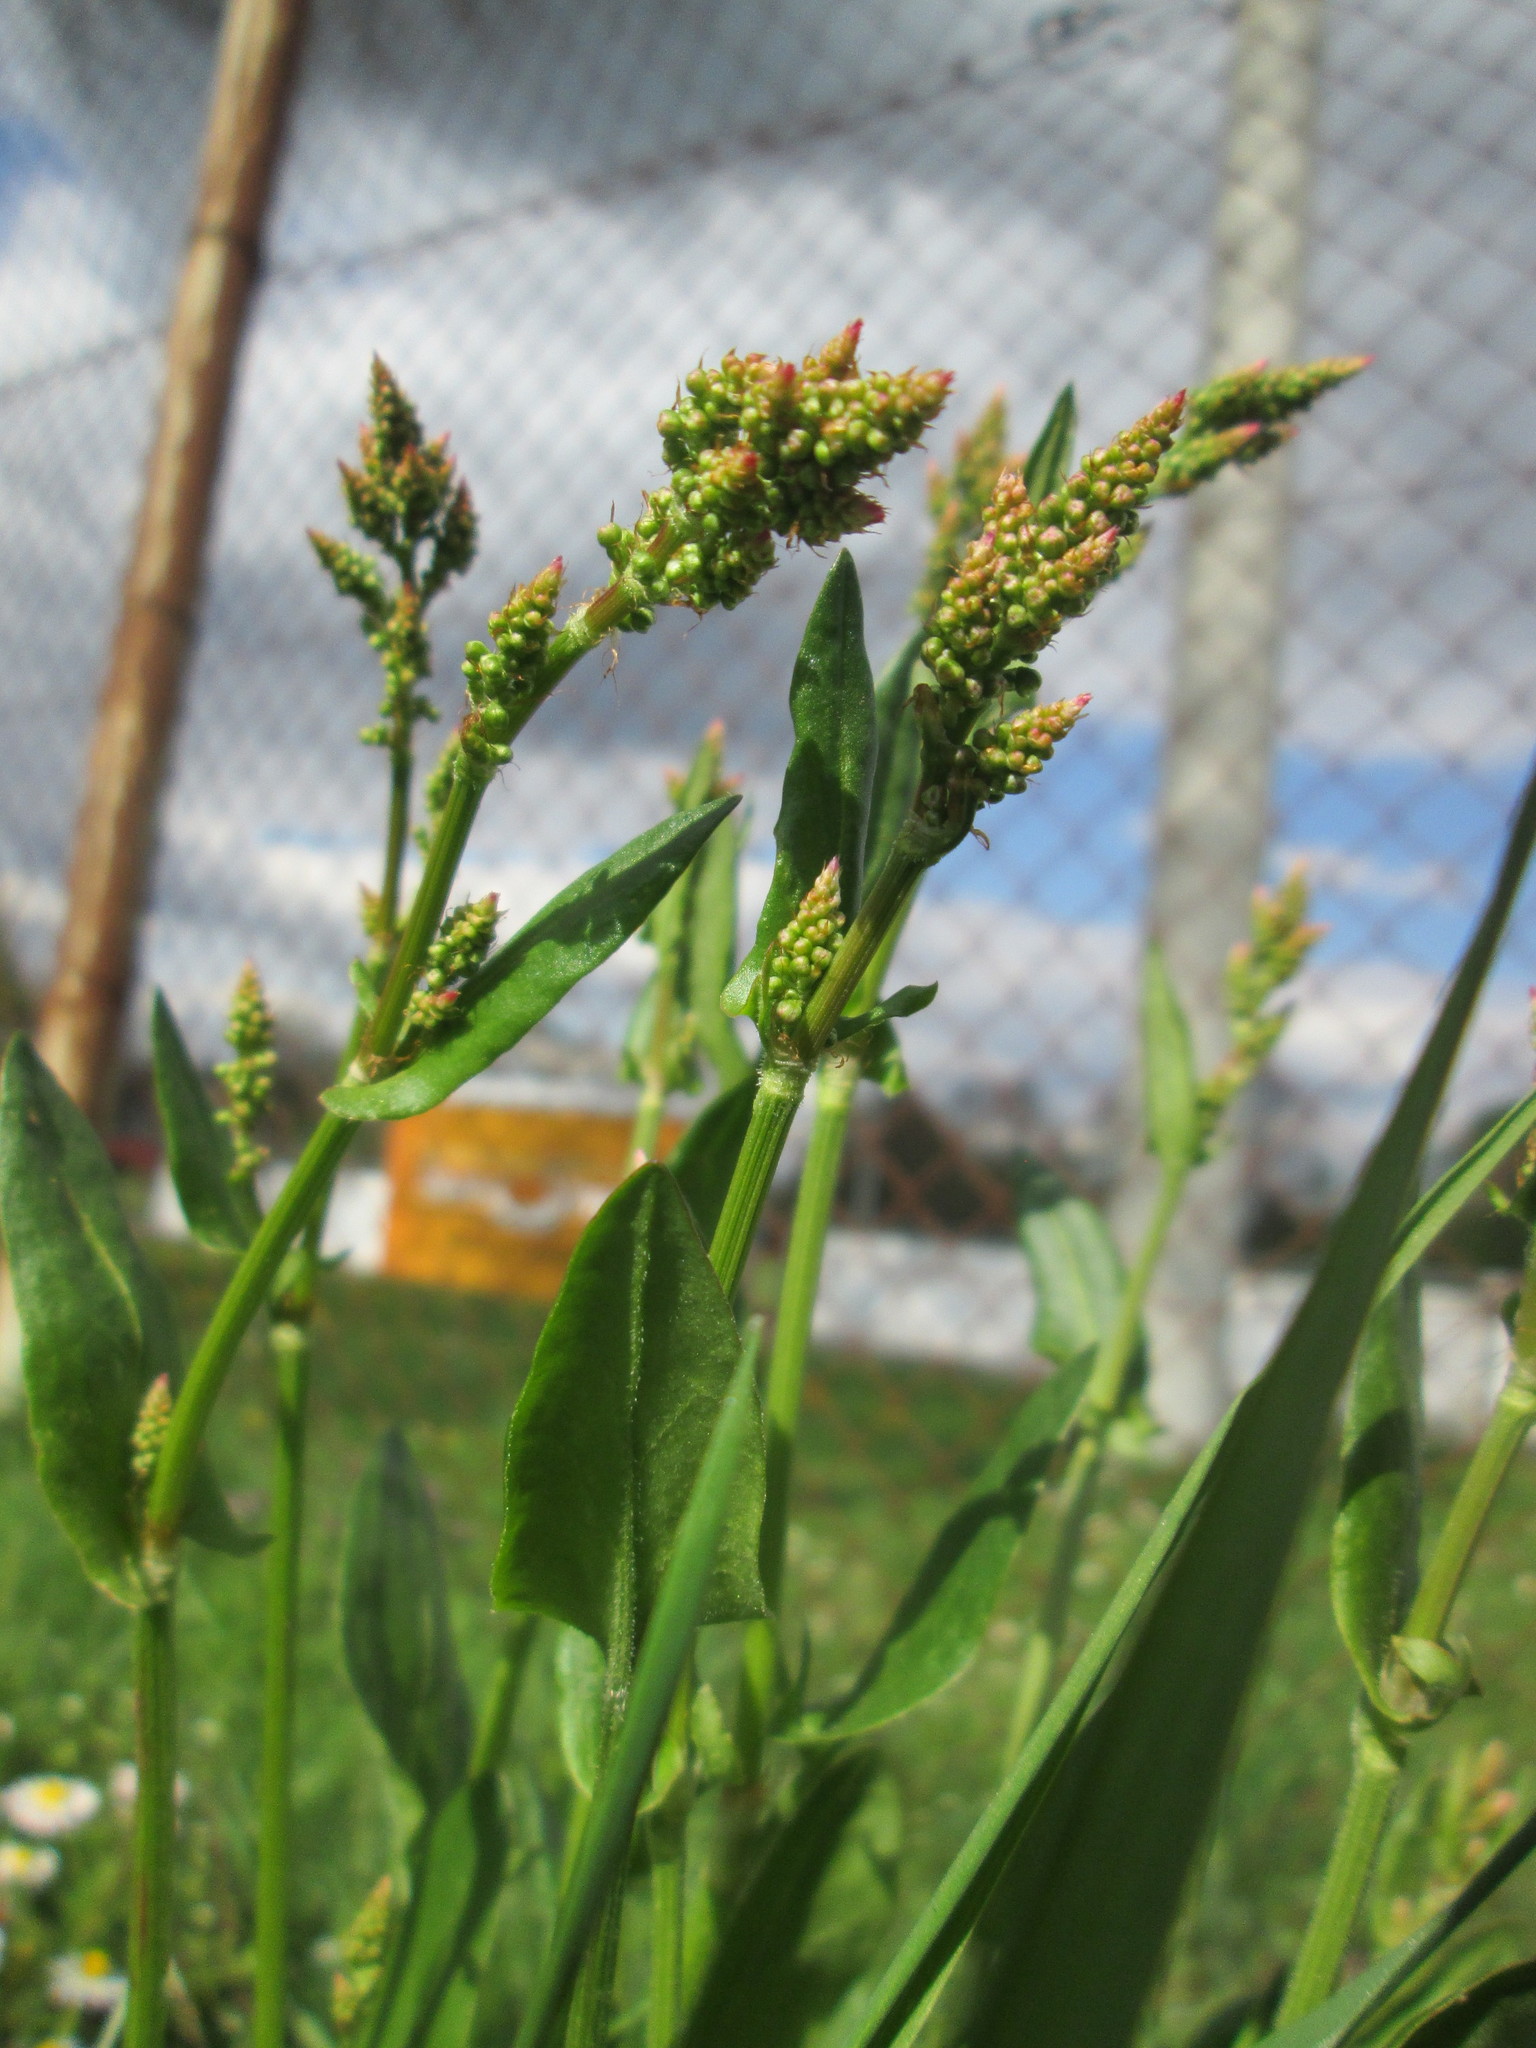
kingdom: Plantae
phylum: Tracheophyta
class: Magnoliopsida
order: Caryophyllales
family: Polygonaceae
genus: Rumex
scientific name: Rumex acetosa
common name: Garden sorrel
